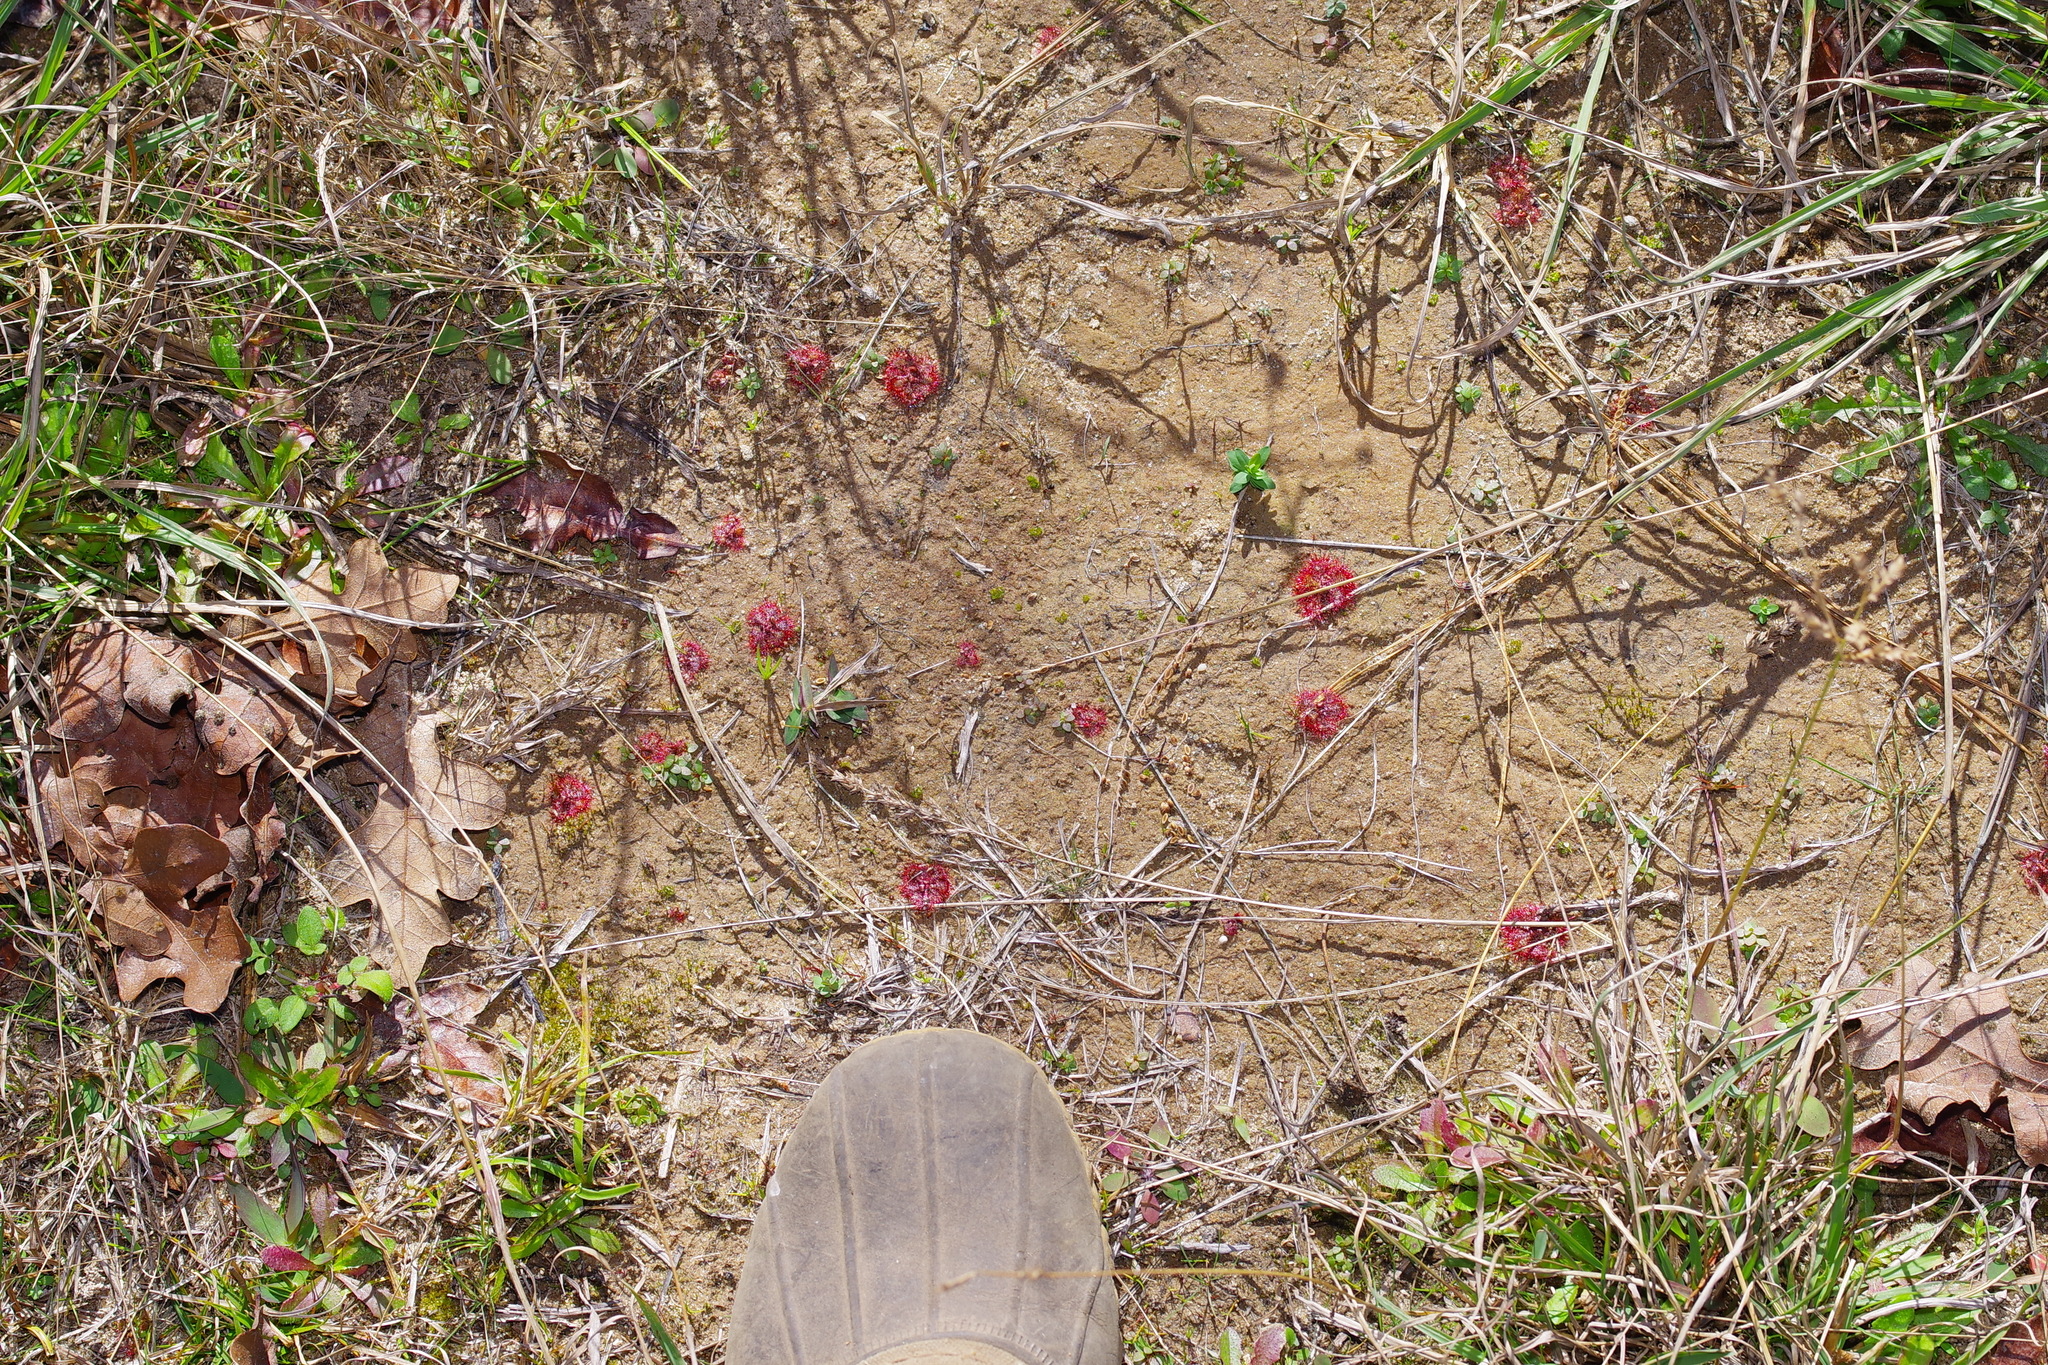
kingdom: Plantae
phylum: Tracheophyta
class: Magnoliopsida
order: Caryophyllales
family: Droseraceae
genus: Drosera
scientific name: Drosera brevifolia
